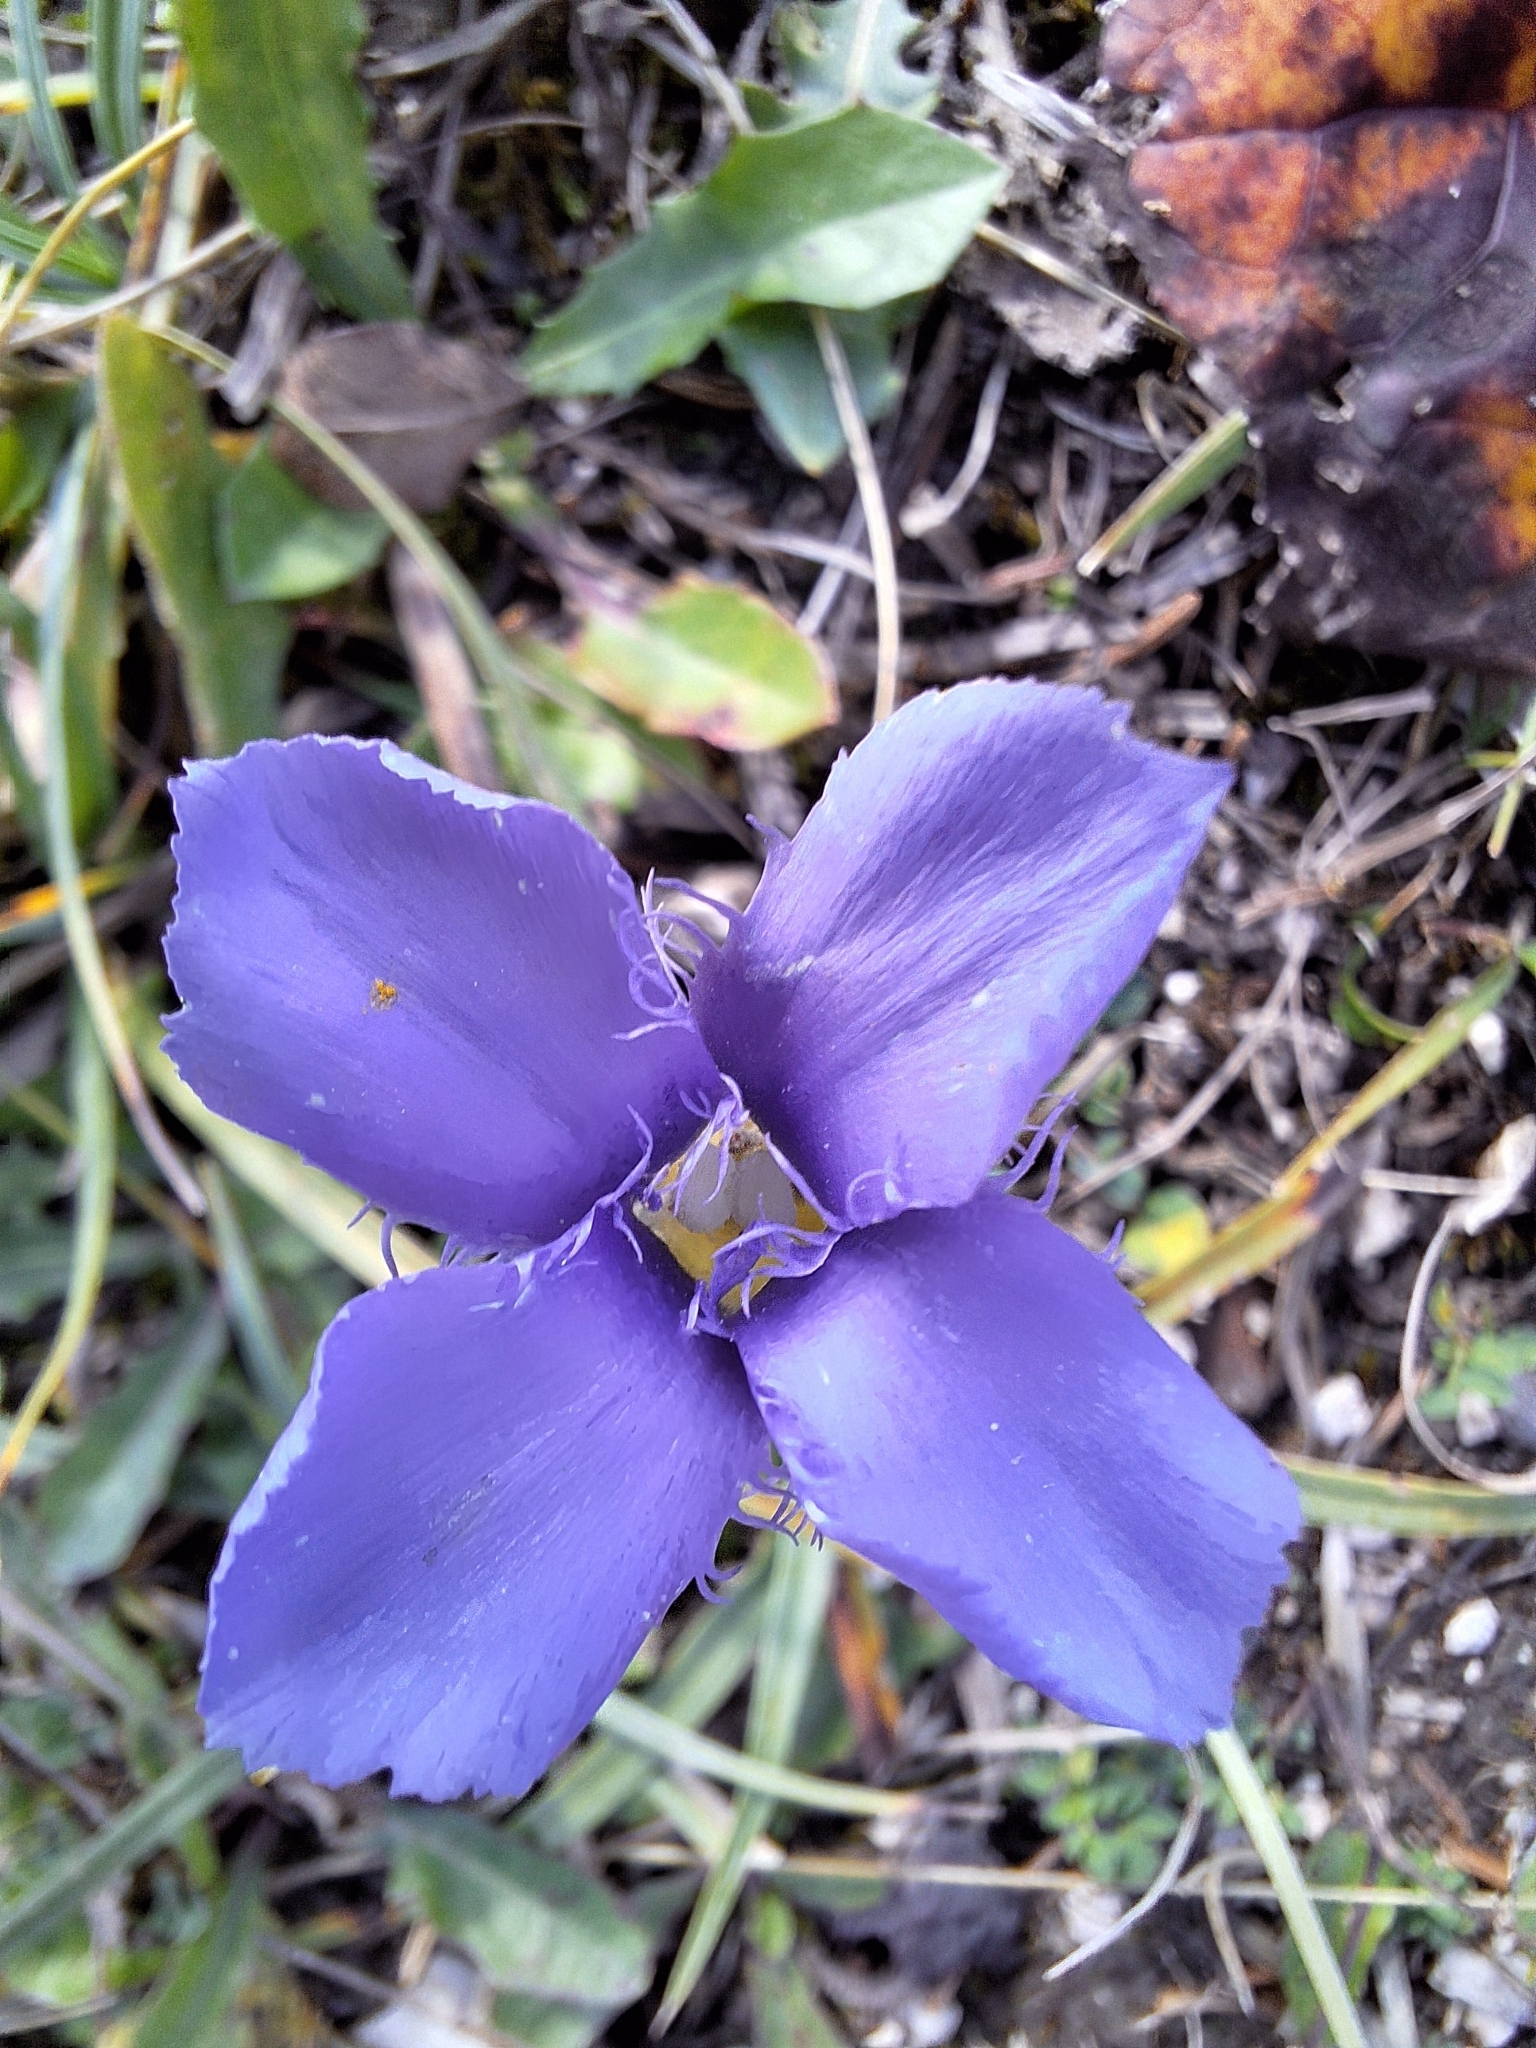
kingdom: Plantae
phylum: Tracheophyta
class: Magnoliopsida
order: Gentianales
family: Gentianaceae
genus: Gentianopsis
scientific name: Gentianopsis ciliata
